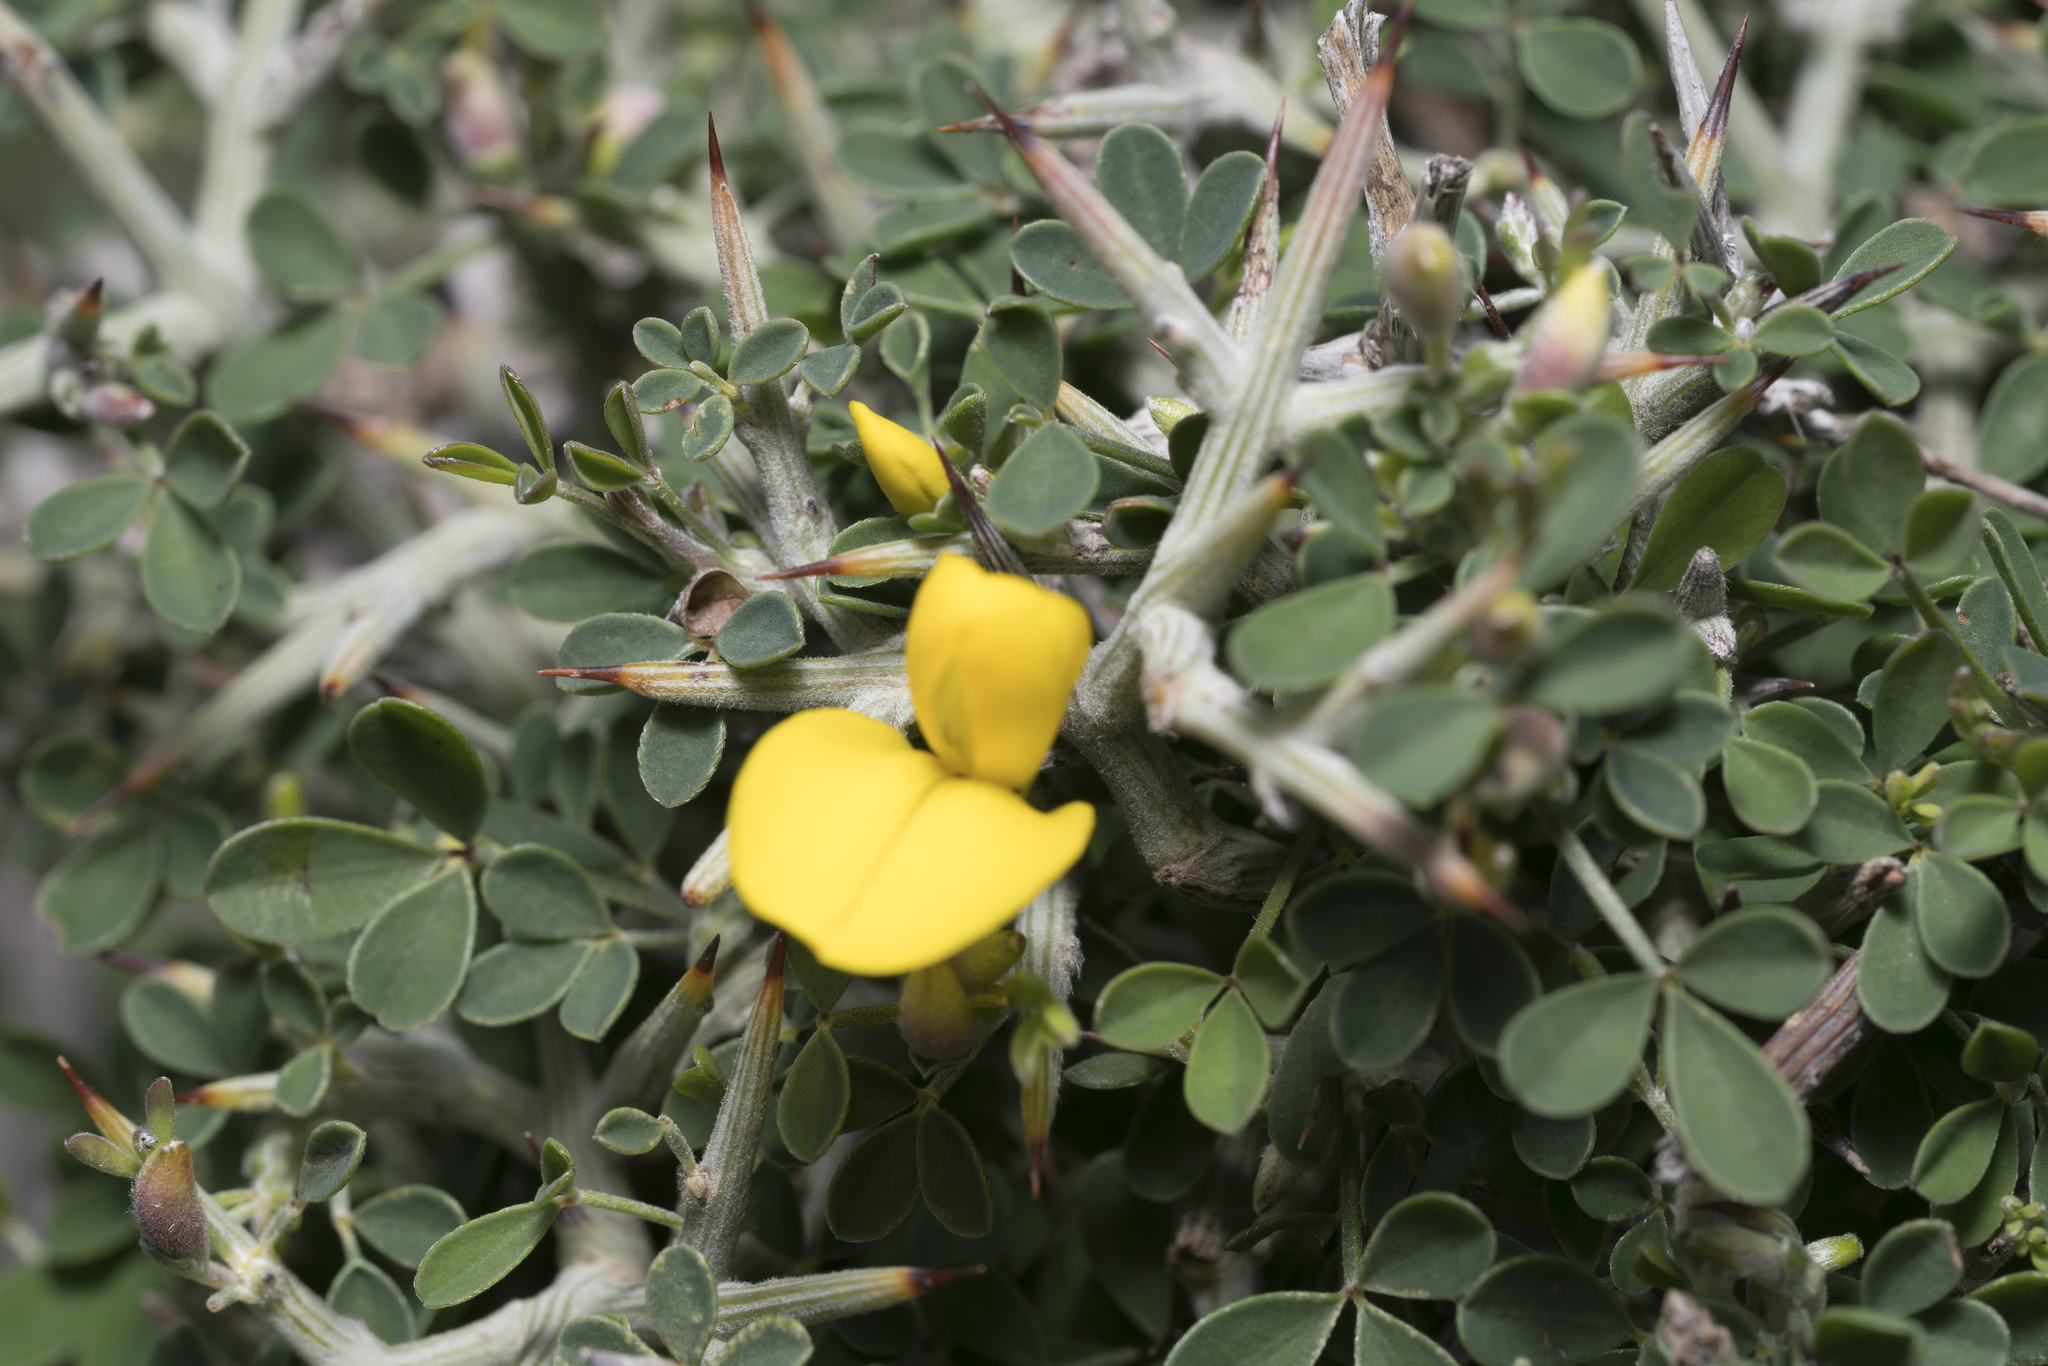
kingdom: Plantae
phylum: Tracheophyta
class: Magnoliopsida
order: Fabales
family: Fabaceae
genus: Calicotome
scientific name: Calicotome villosa
